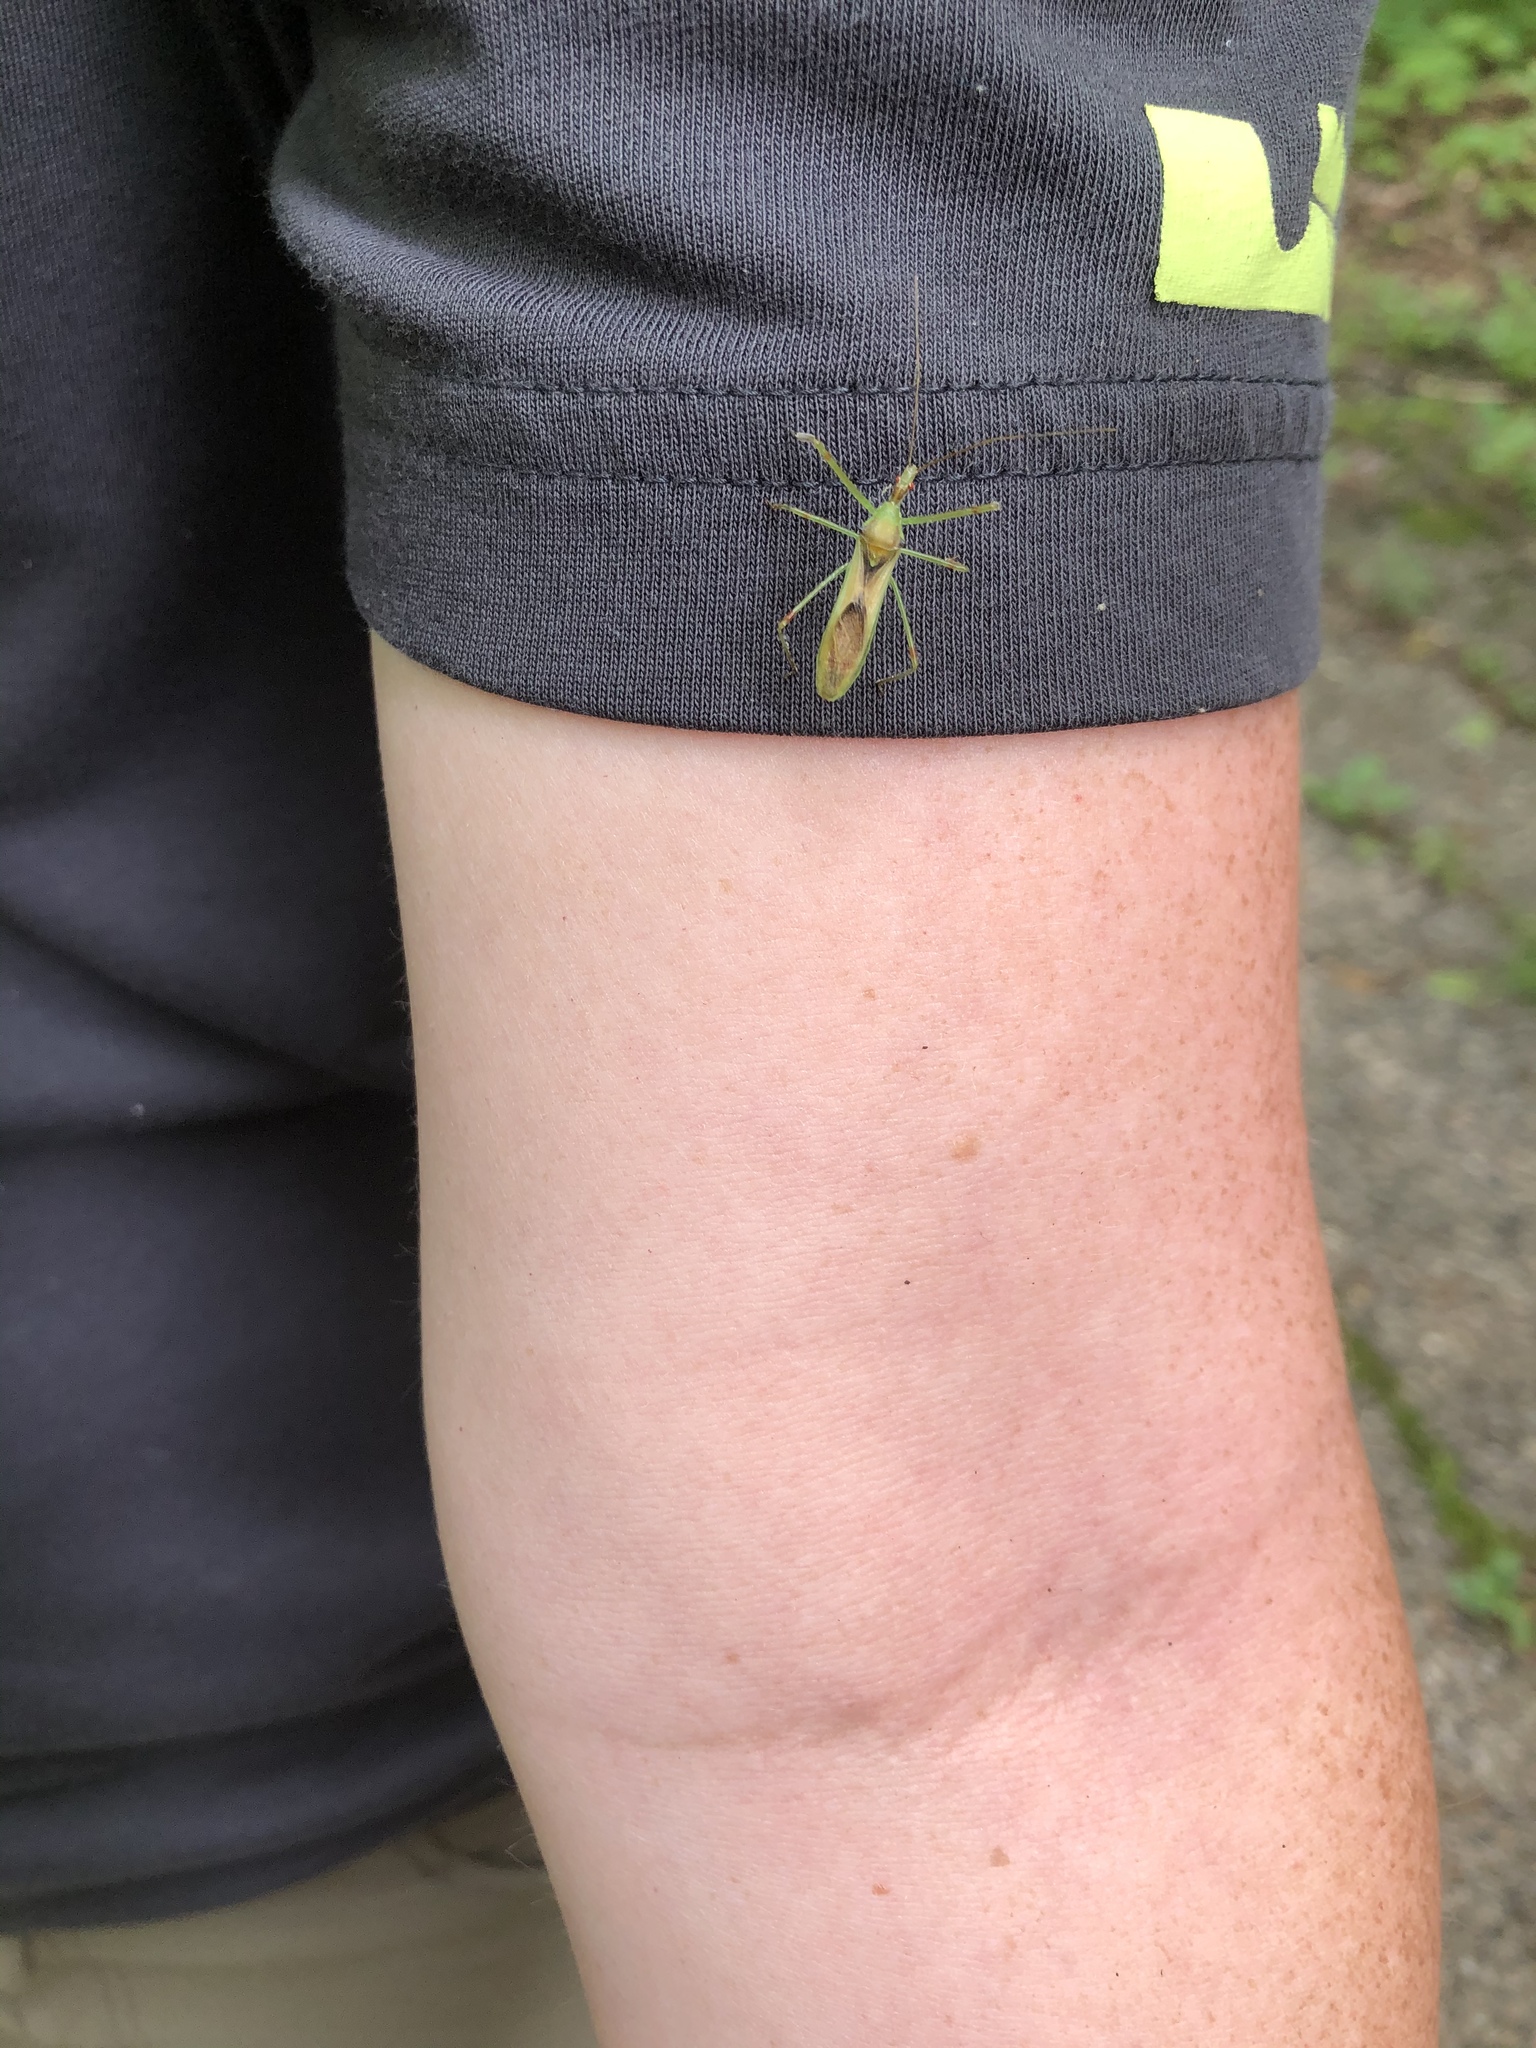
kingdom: Animalia
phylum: Arthropoda
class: Insecta
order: Hemiptera
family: Reduviidae
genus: Zelus
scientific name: Zelus luridus
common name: Pale green assassin bug
